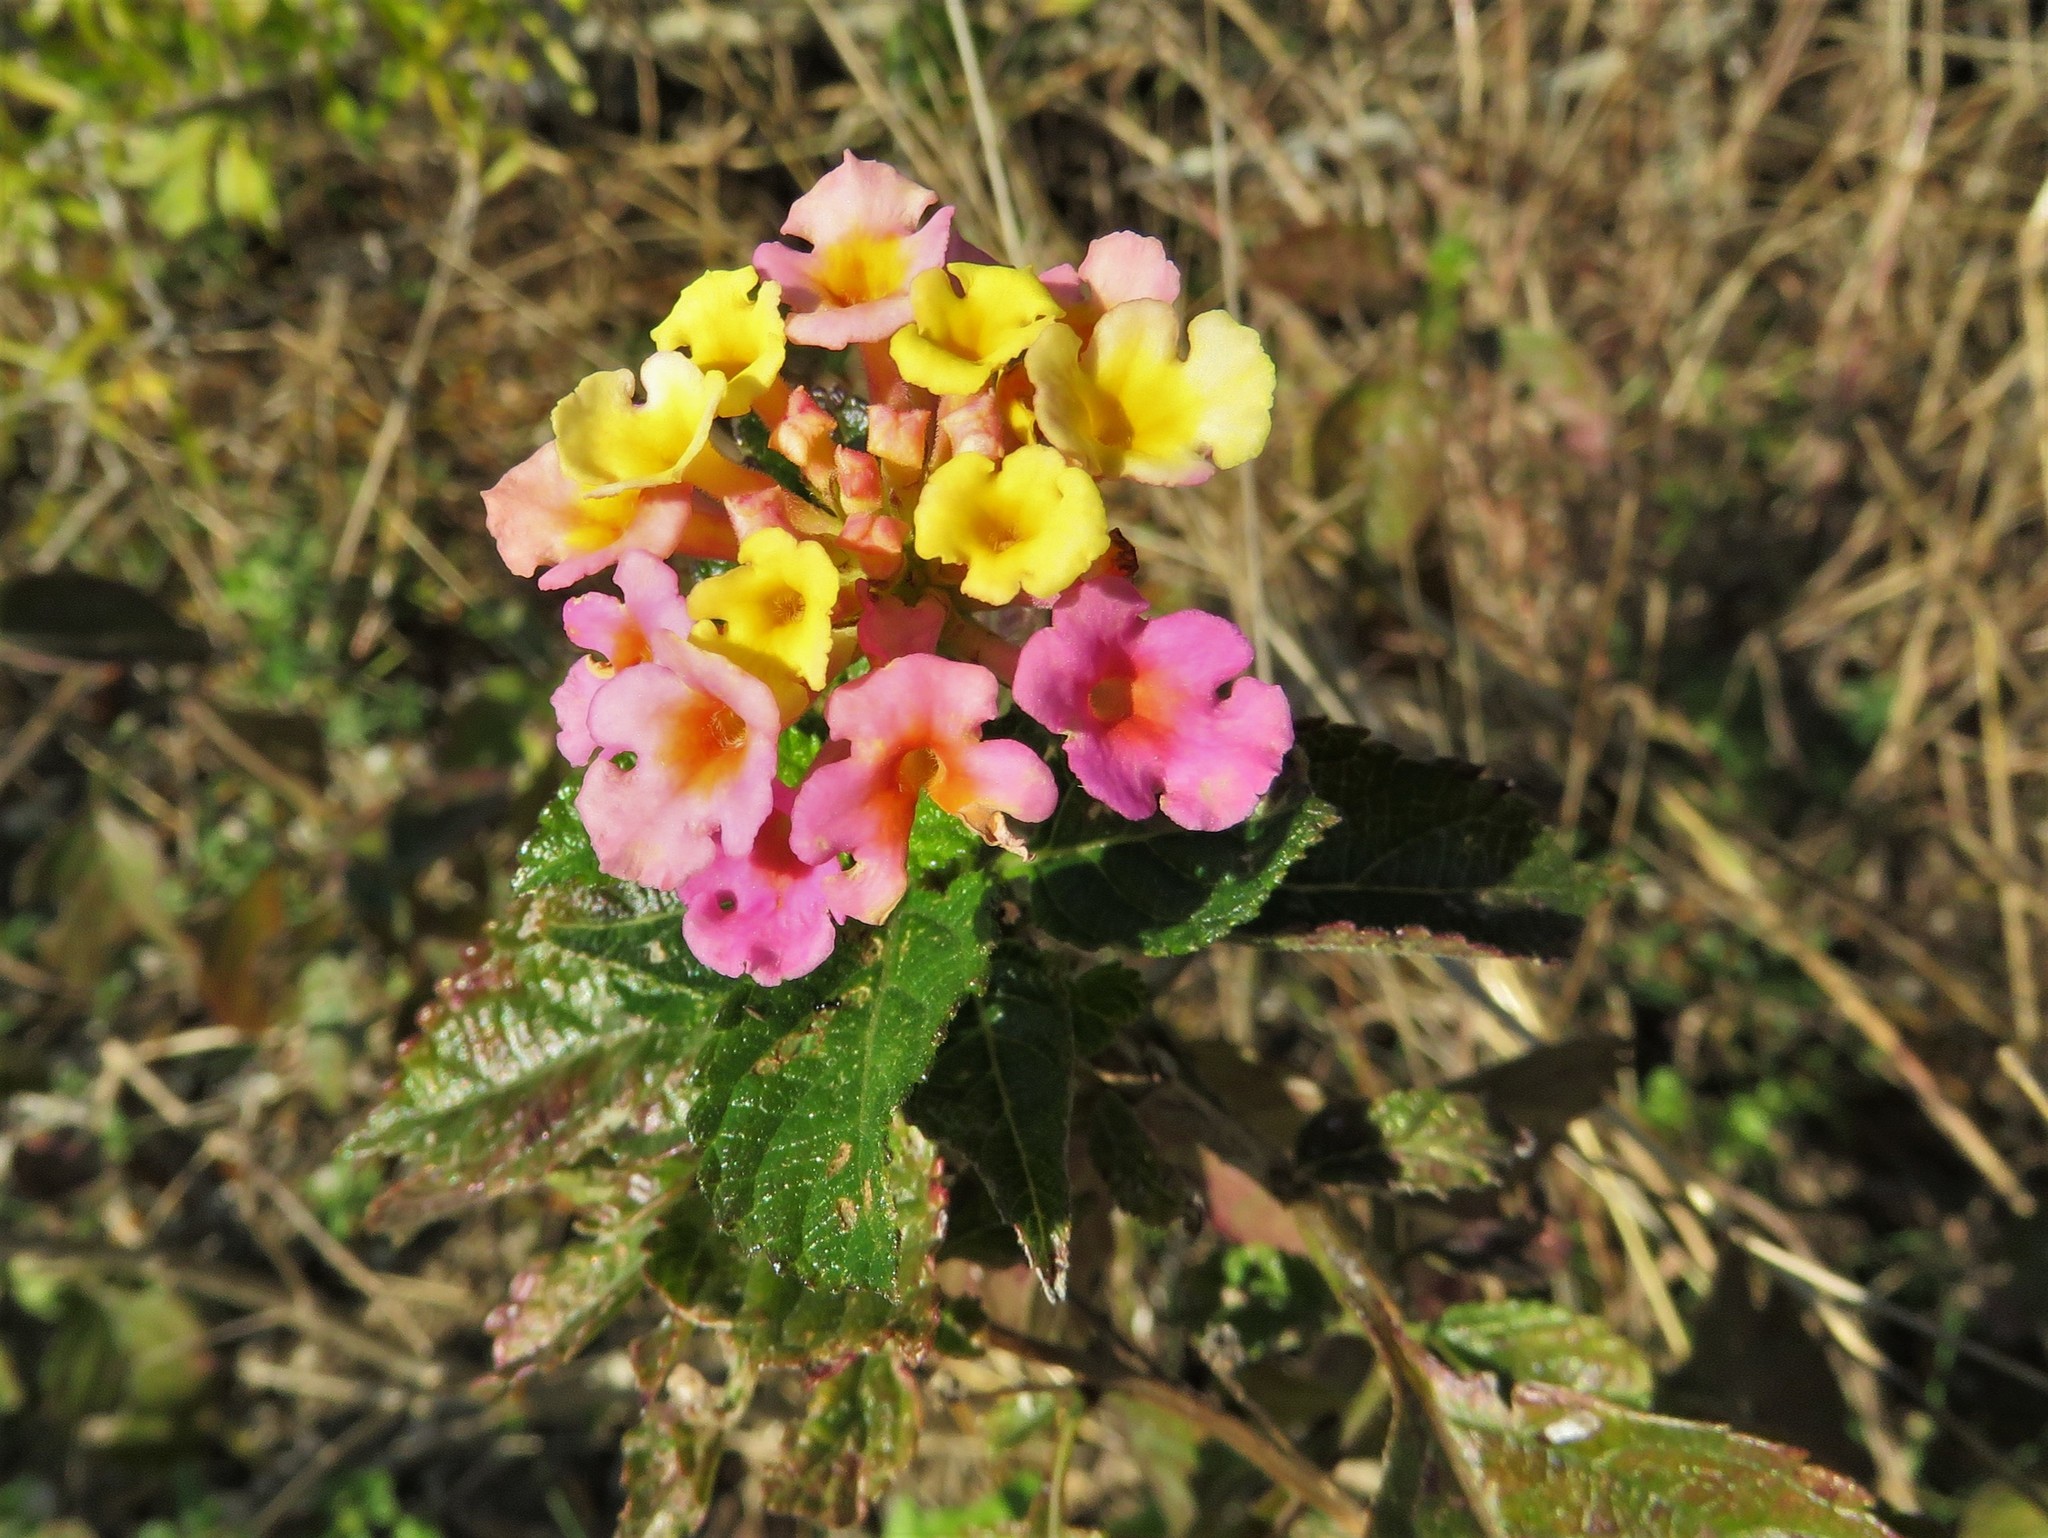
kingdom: Plantae
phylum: Tracheophyta
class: Magnoliopsida
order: Lamiales
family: Verbenaceae
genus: Lantana
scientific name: Lantana strigocamara
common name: Lantana
